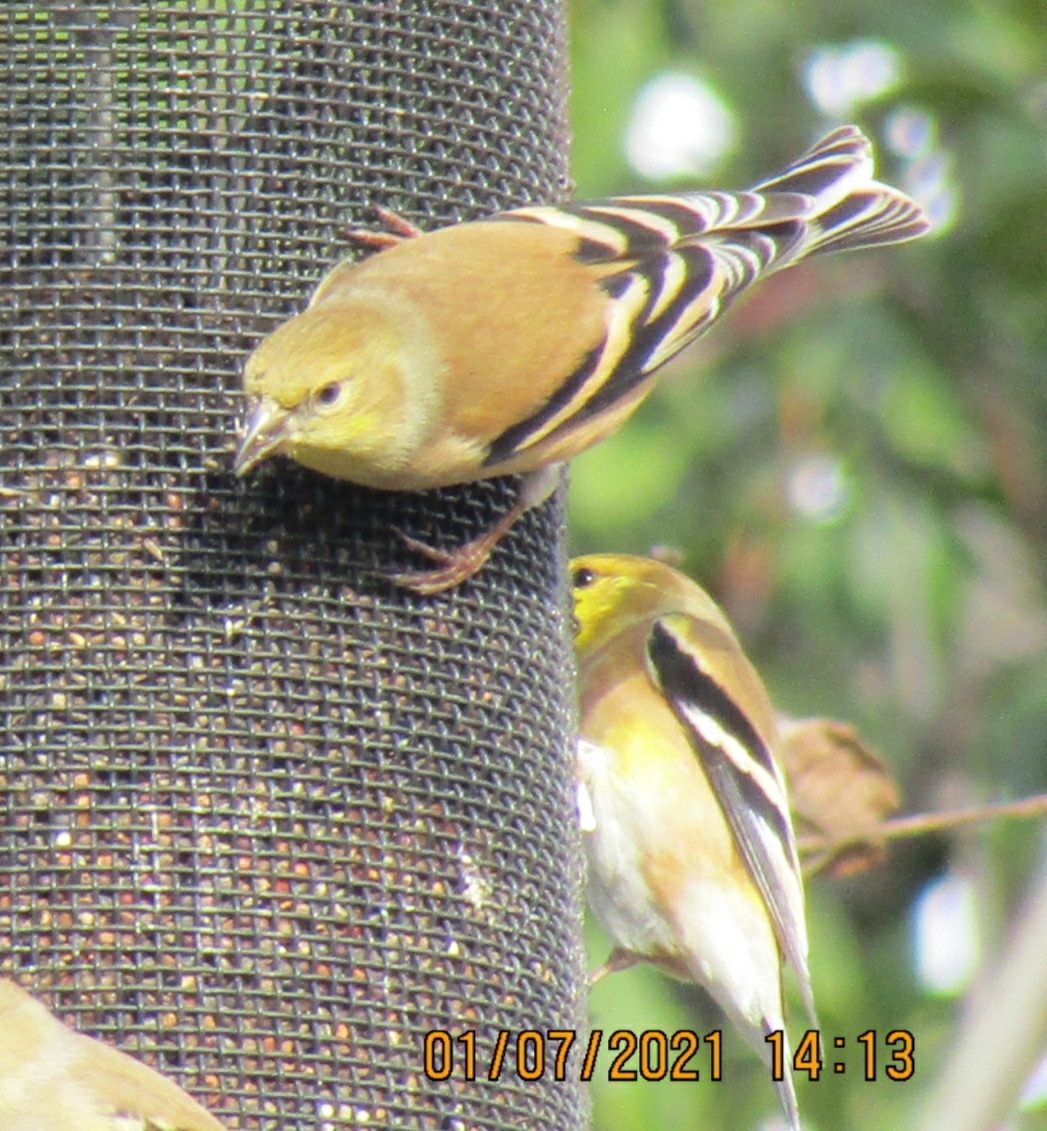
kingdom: Animalia
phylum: Chordata
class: Aves
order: Passeriformes
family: Fringillidae
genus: Spinus
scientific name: Spinus tristis
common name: American goldfinch
